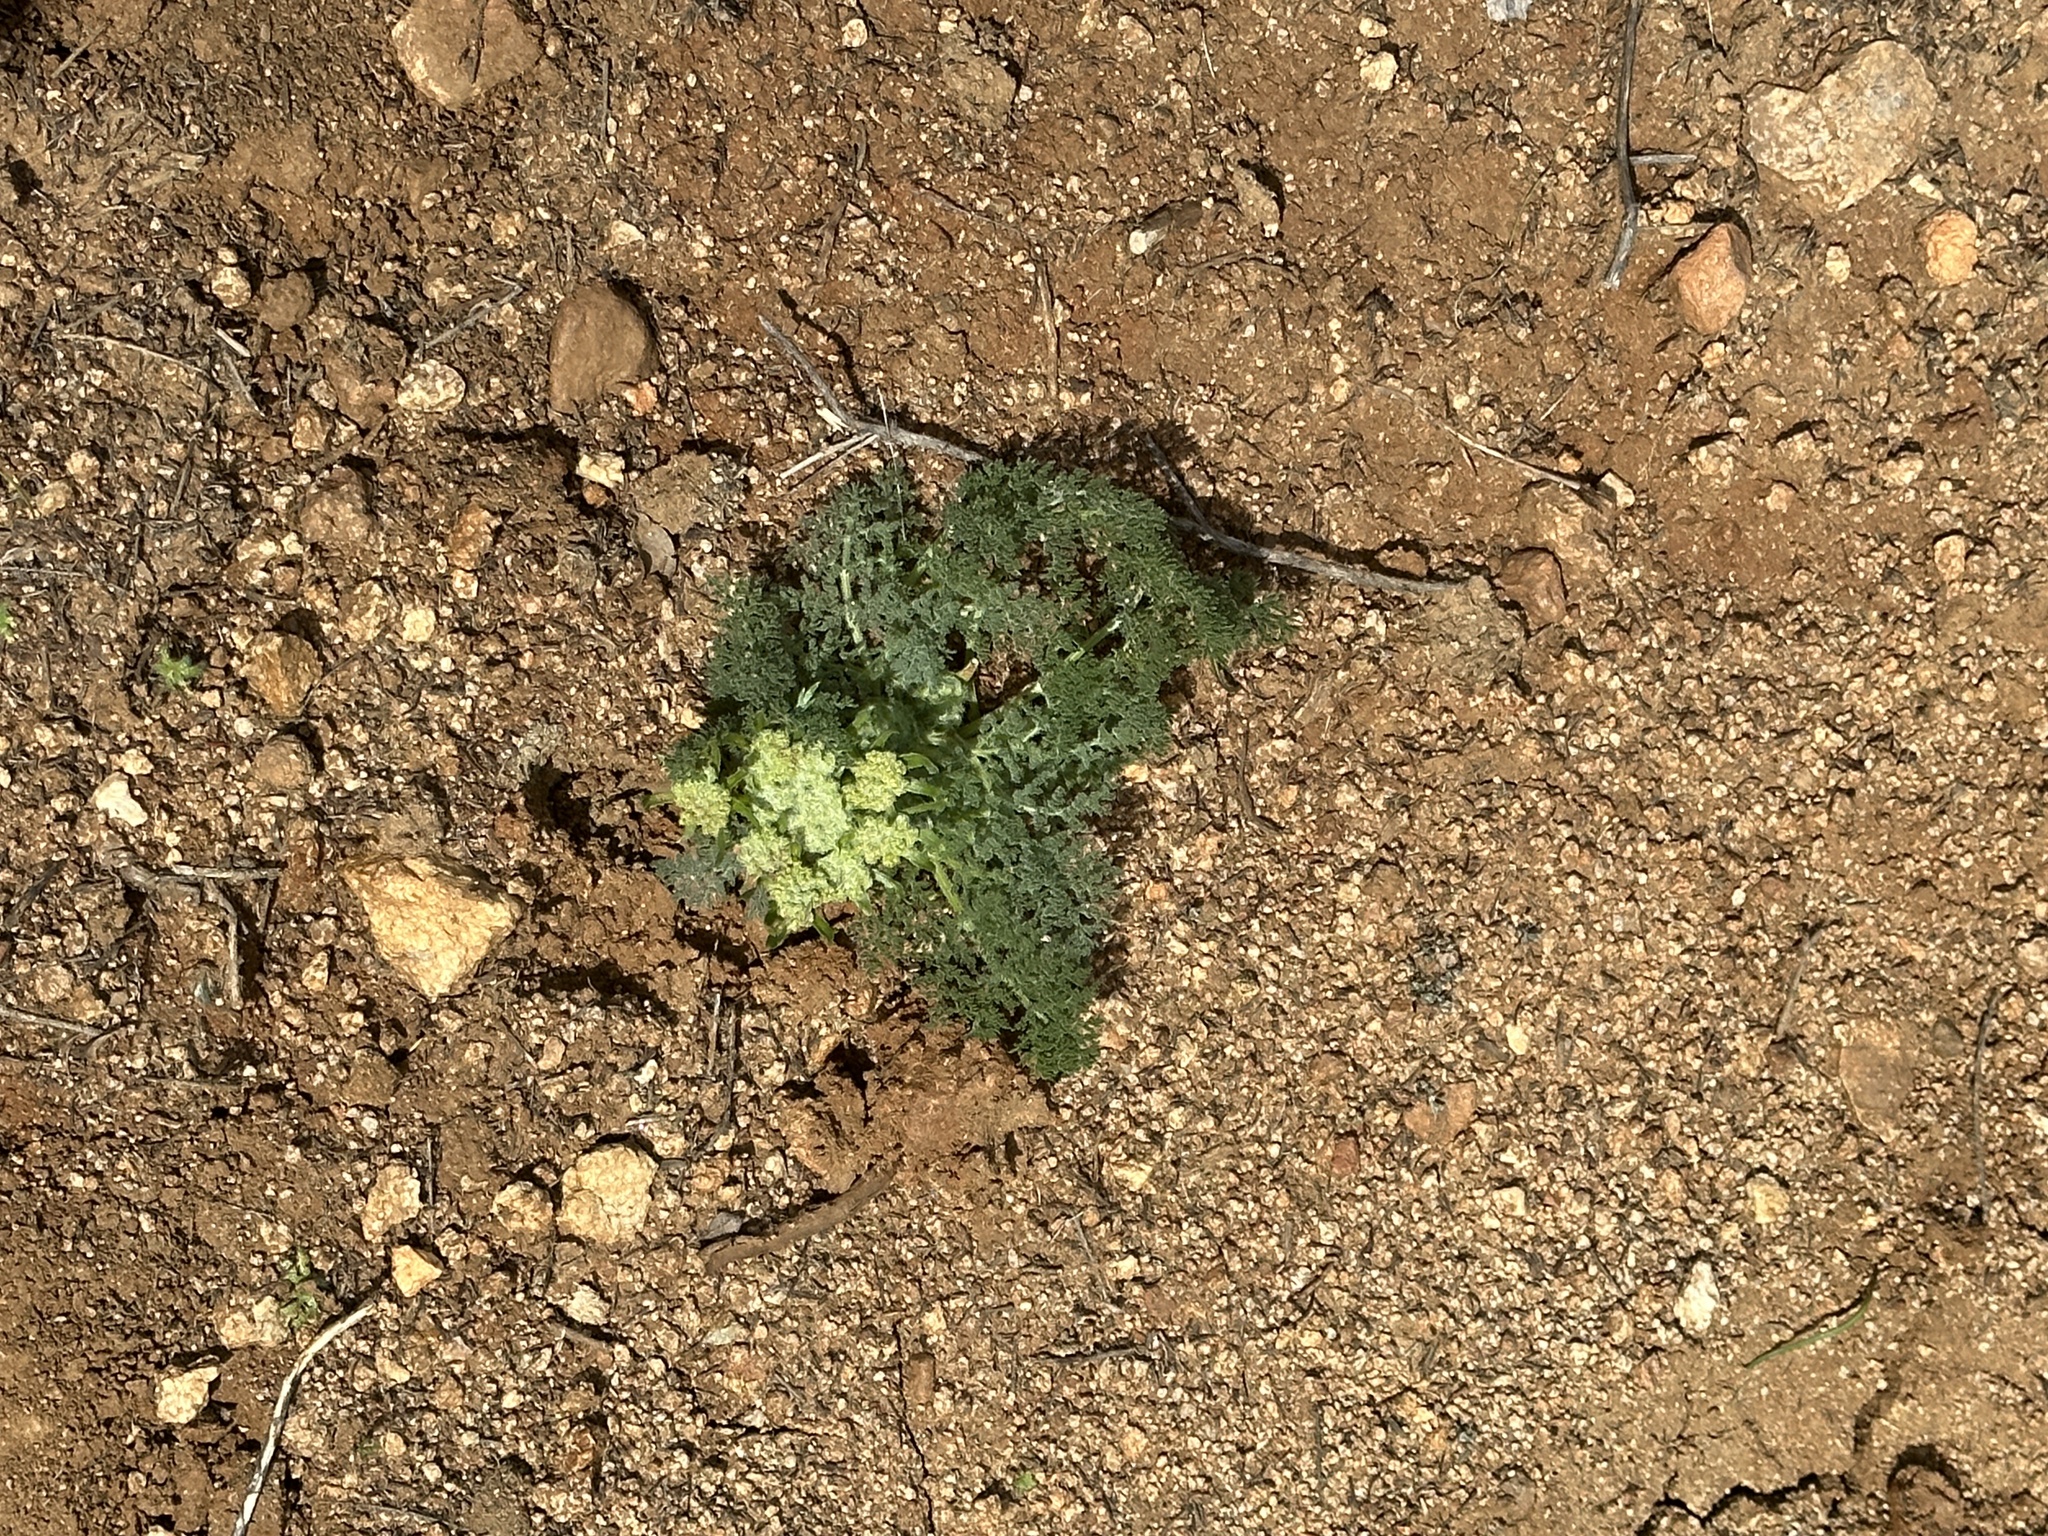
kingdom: Plantae
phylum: Tracheophyta
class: Magnoliopsida
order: Apiales
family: Apiaceae
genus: Lomatium
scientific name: Lomatium dasycarpum
